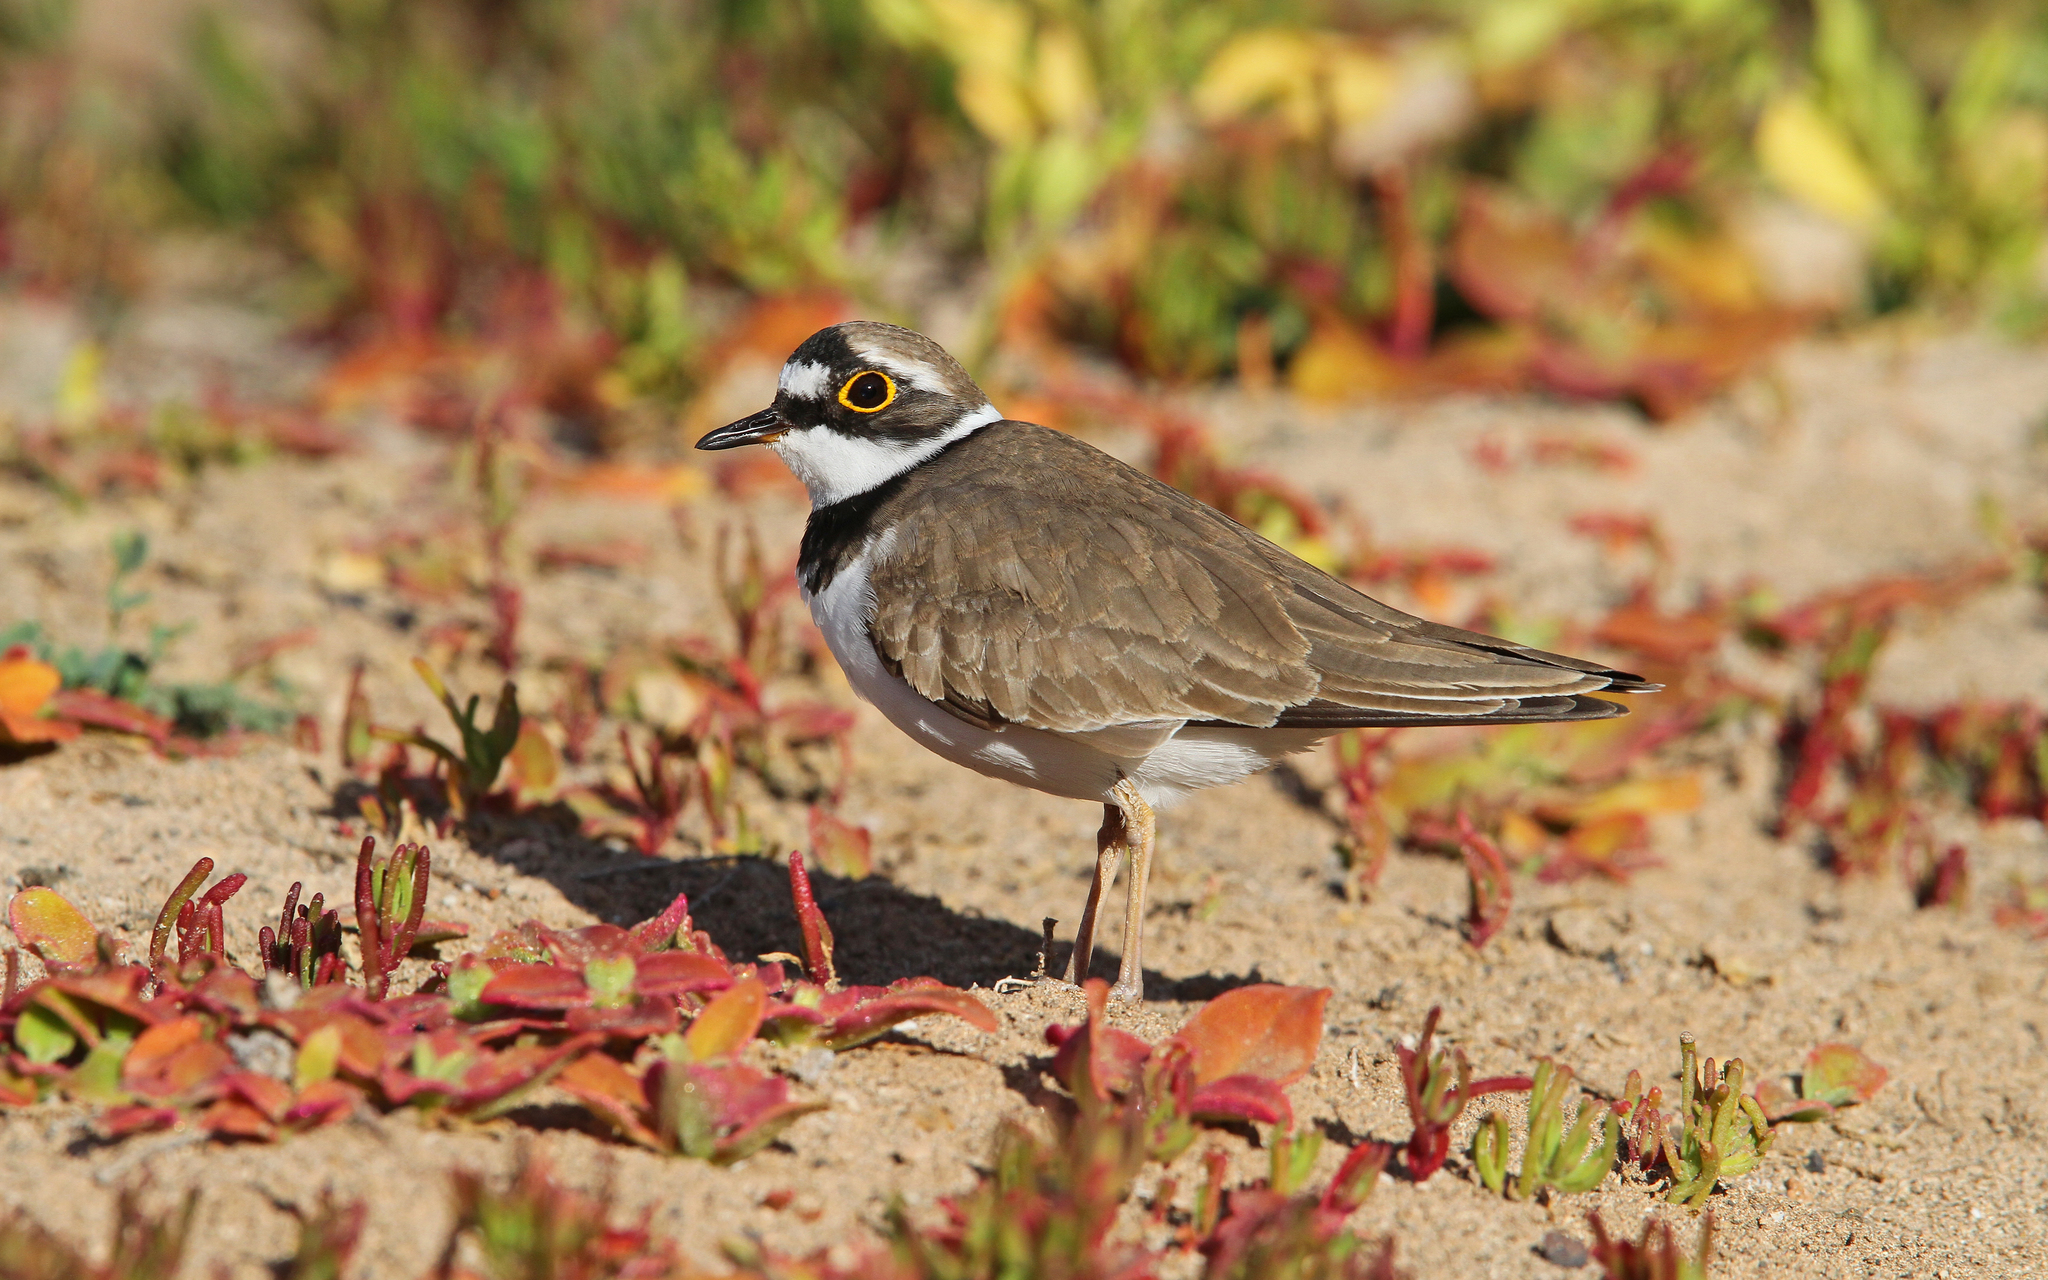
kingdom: Animalia
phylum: Chordata
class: Aves
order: Charadriiformes
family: Charadriidae
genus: Charadrius
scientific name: Charadrius dubius
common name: Little ringed plover
